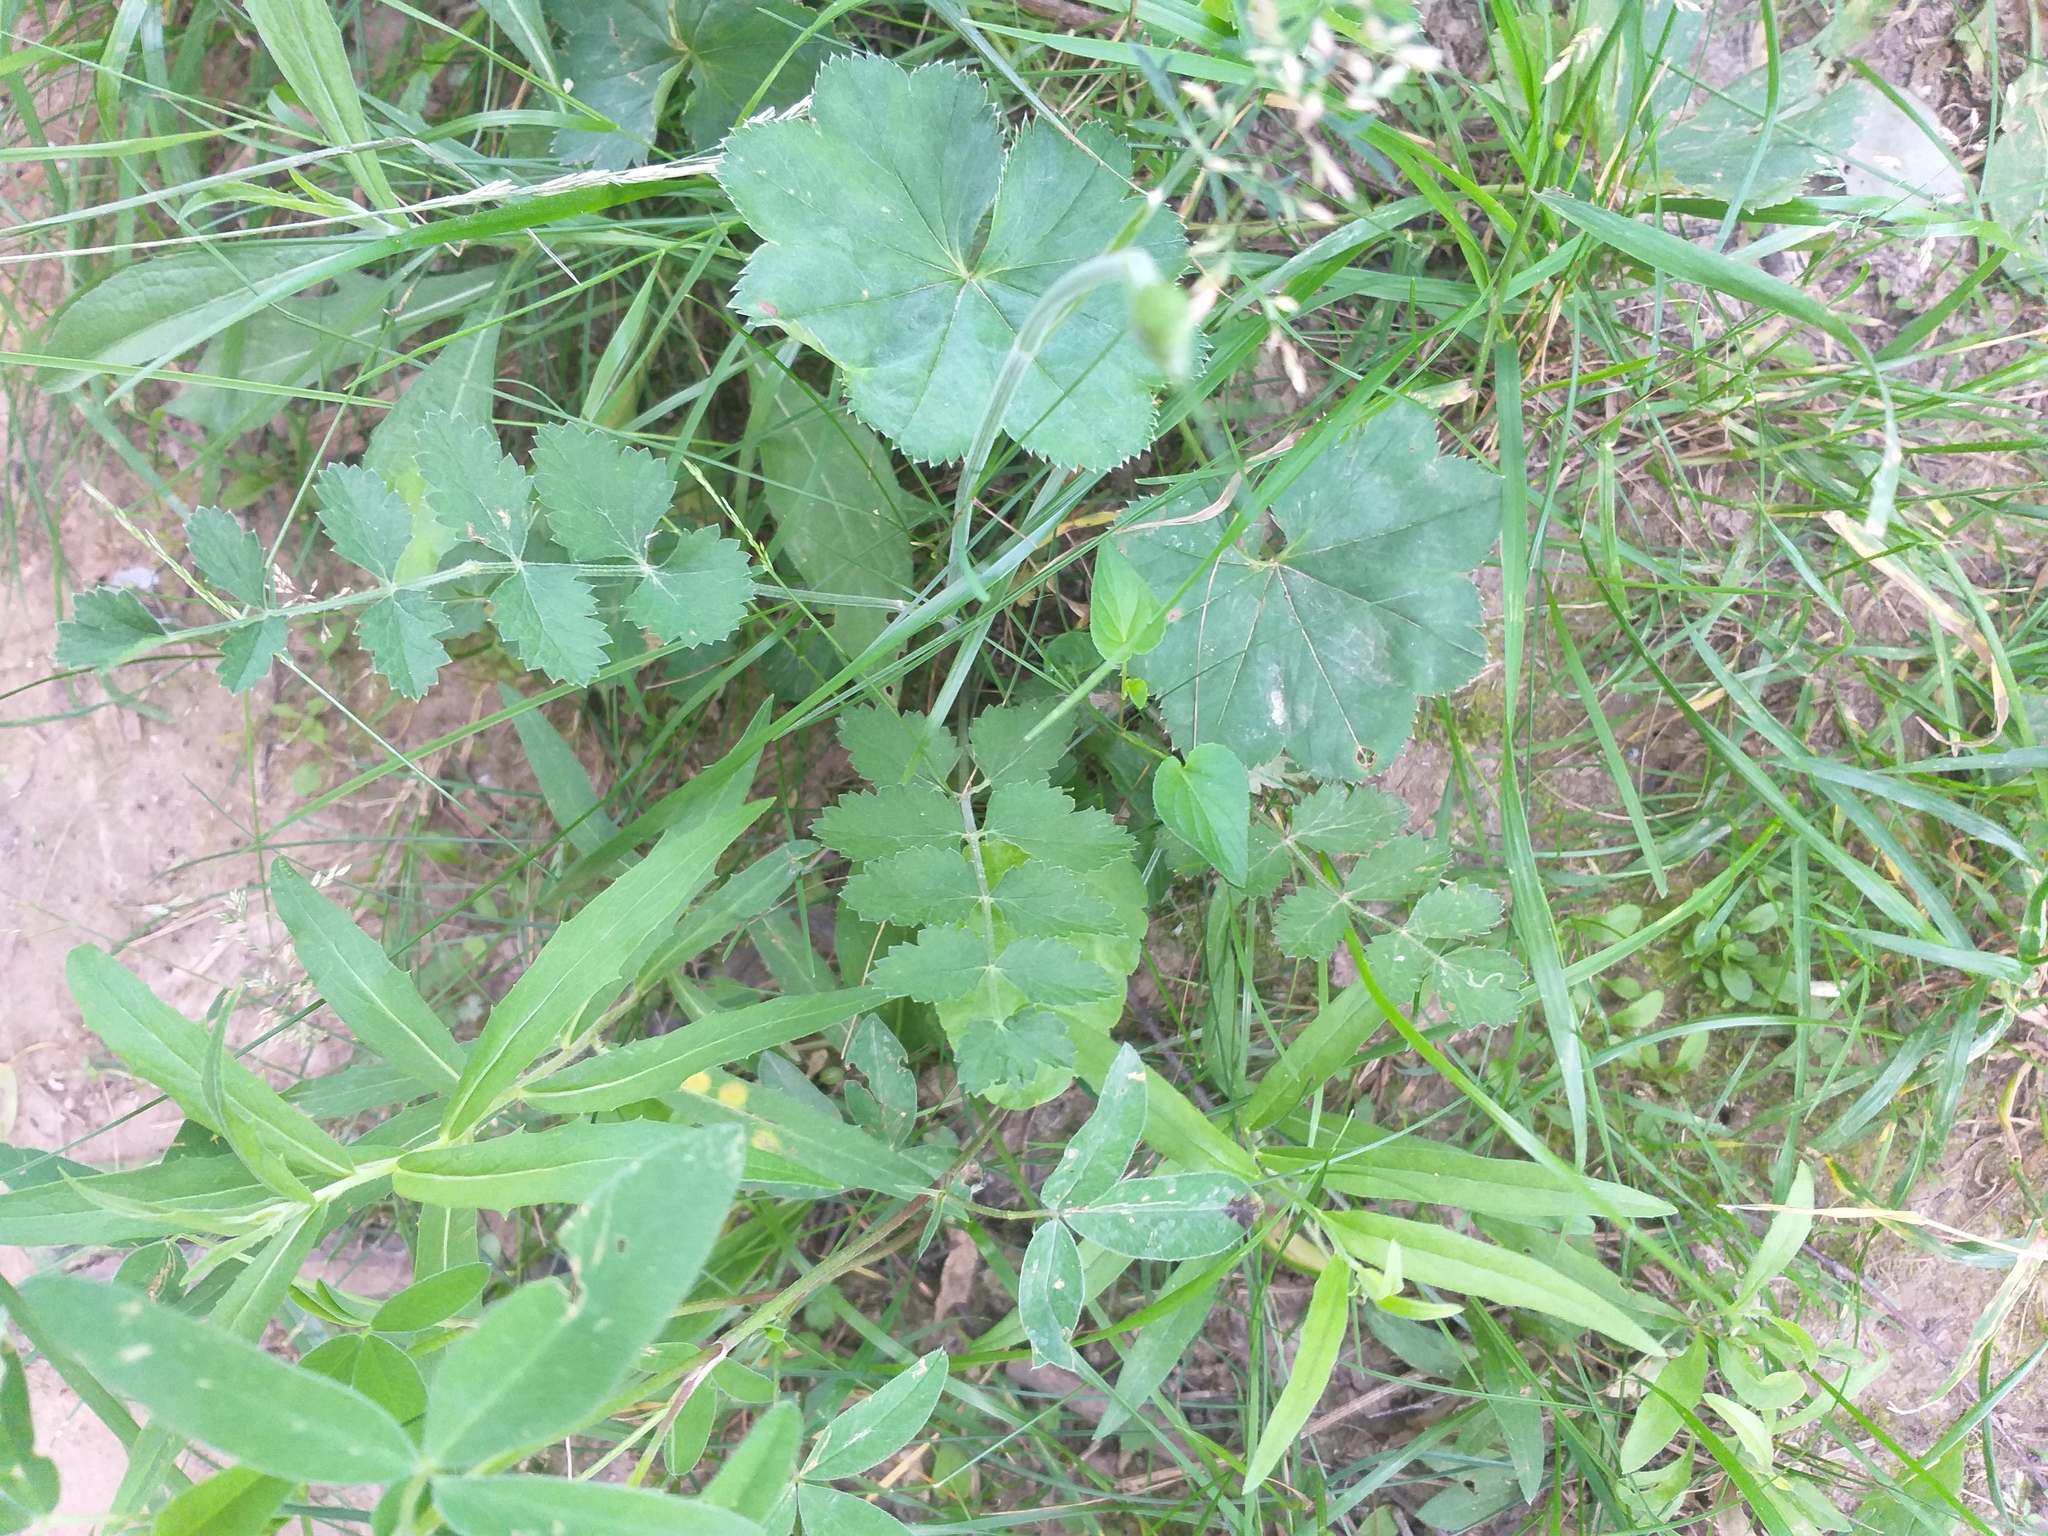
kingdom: Plantae
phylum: Tracheophyta
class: Magnoliopsida
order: Apiales
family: Apiaceae
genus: Pimpinella
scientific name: Pimpinella saxifraga
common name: Burnet-saxifrage
